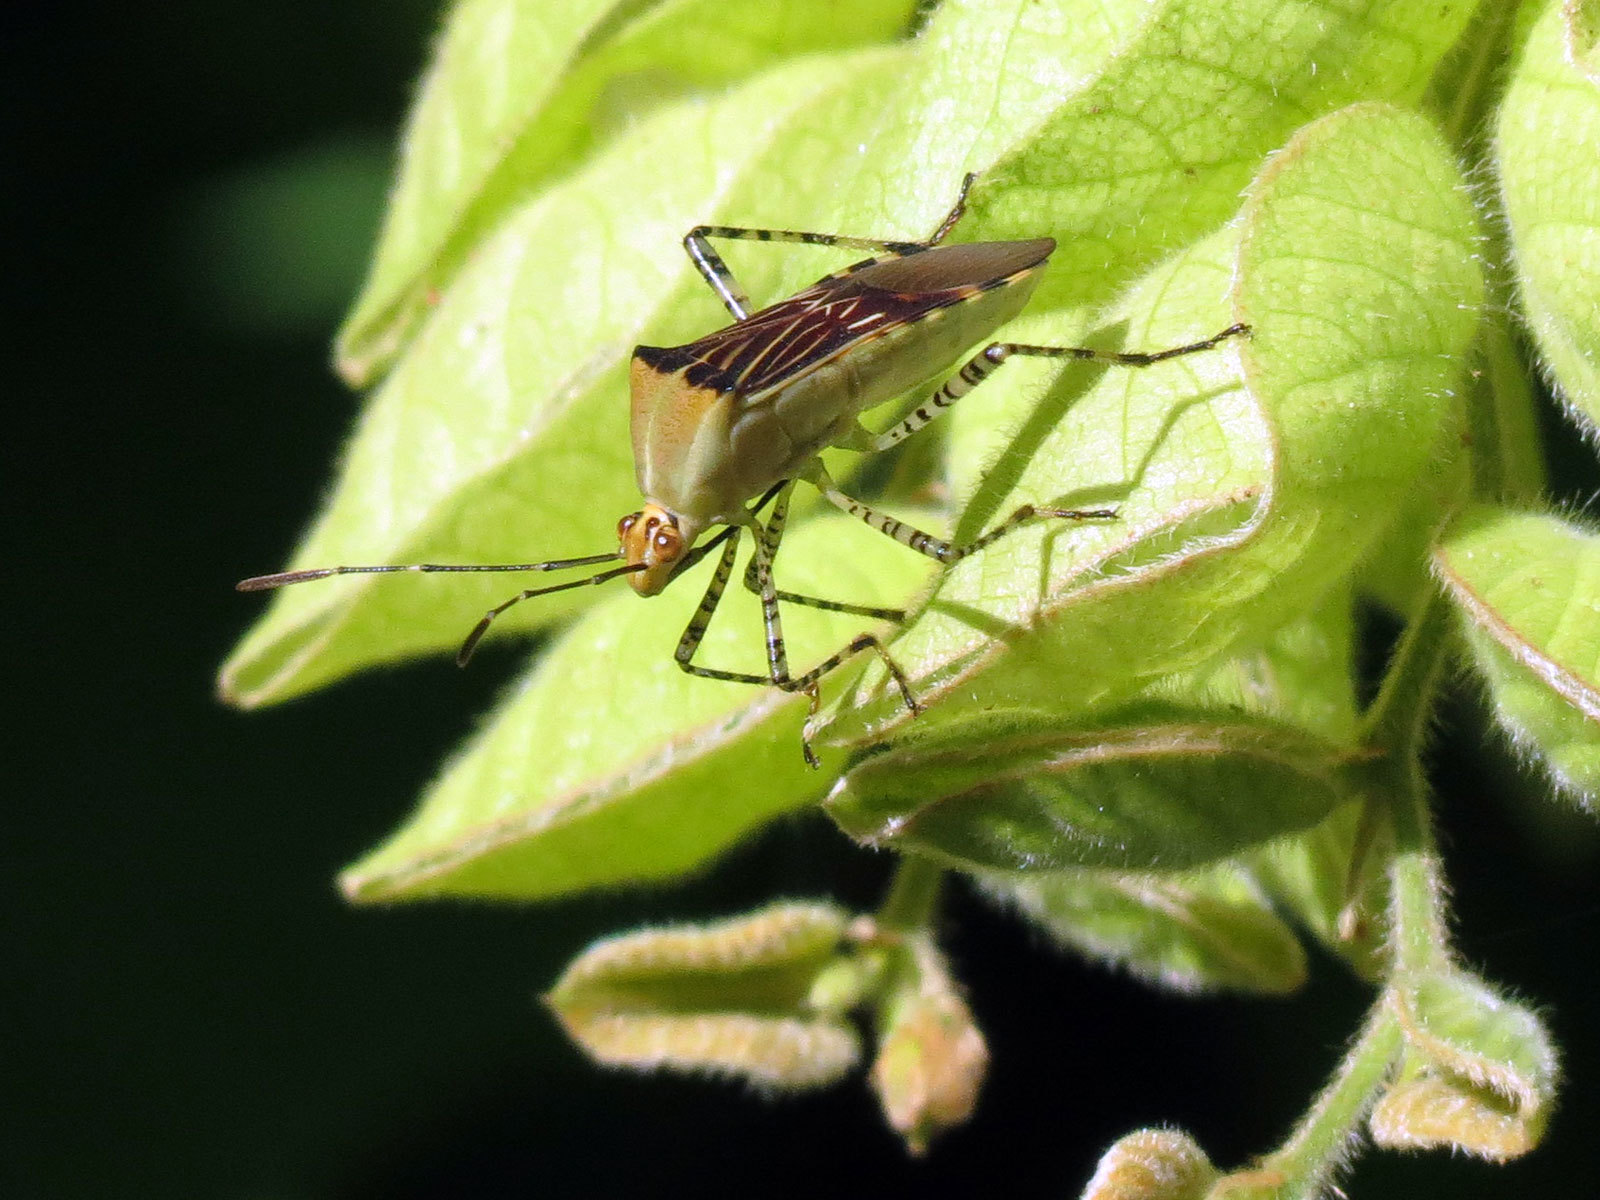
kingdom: Animalia
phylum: Arthropoda
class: Insecta
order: Hemiptera
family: Coreidae
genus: Hypselonotus
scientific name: Hypselonotus lineatus
